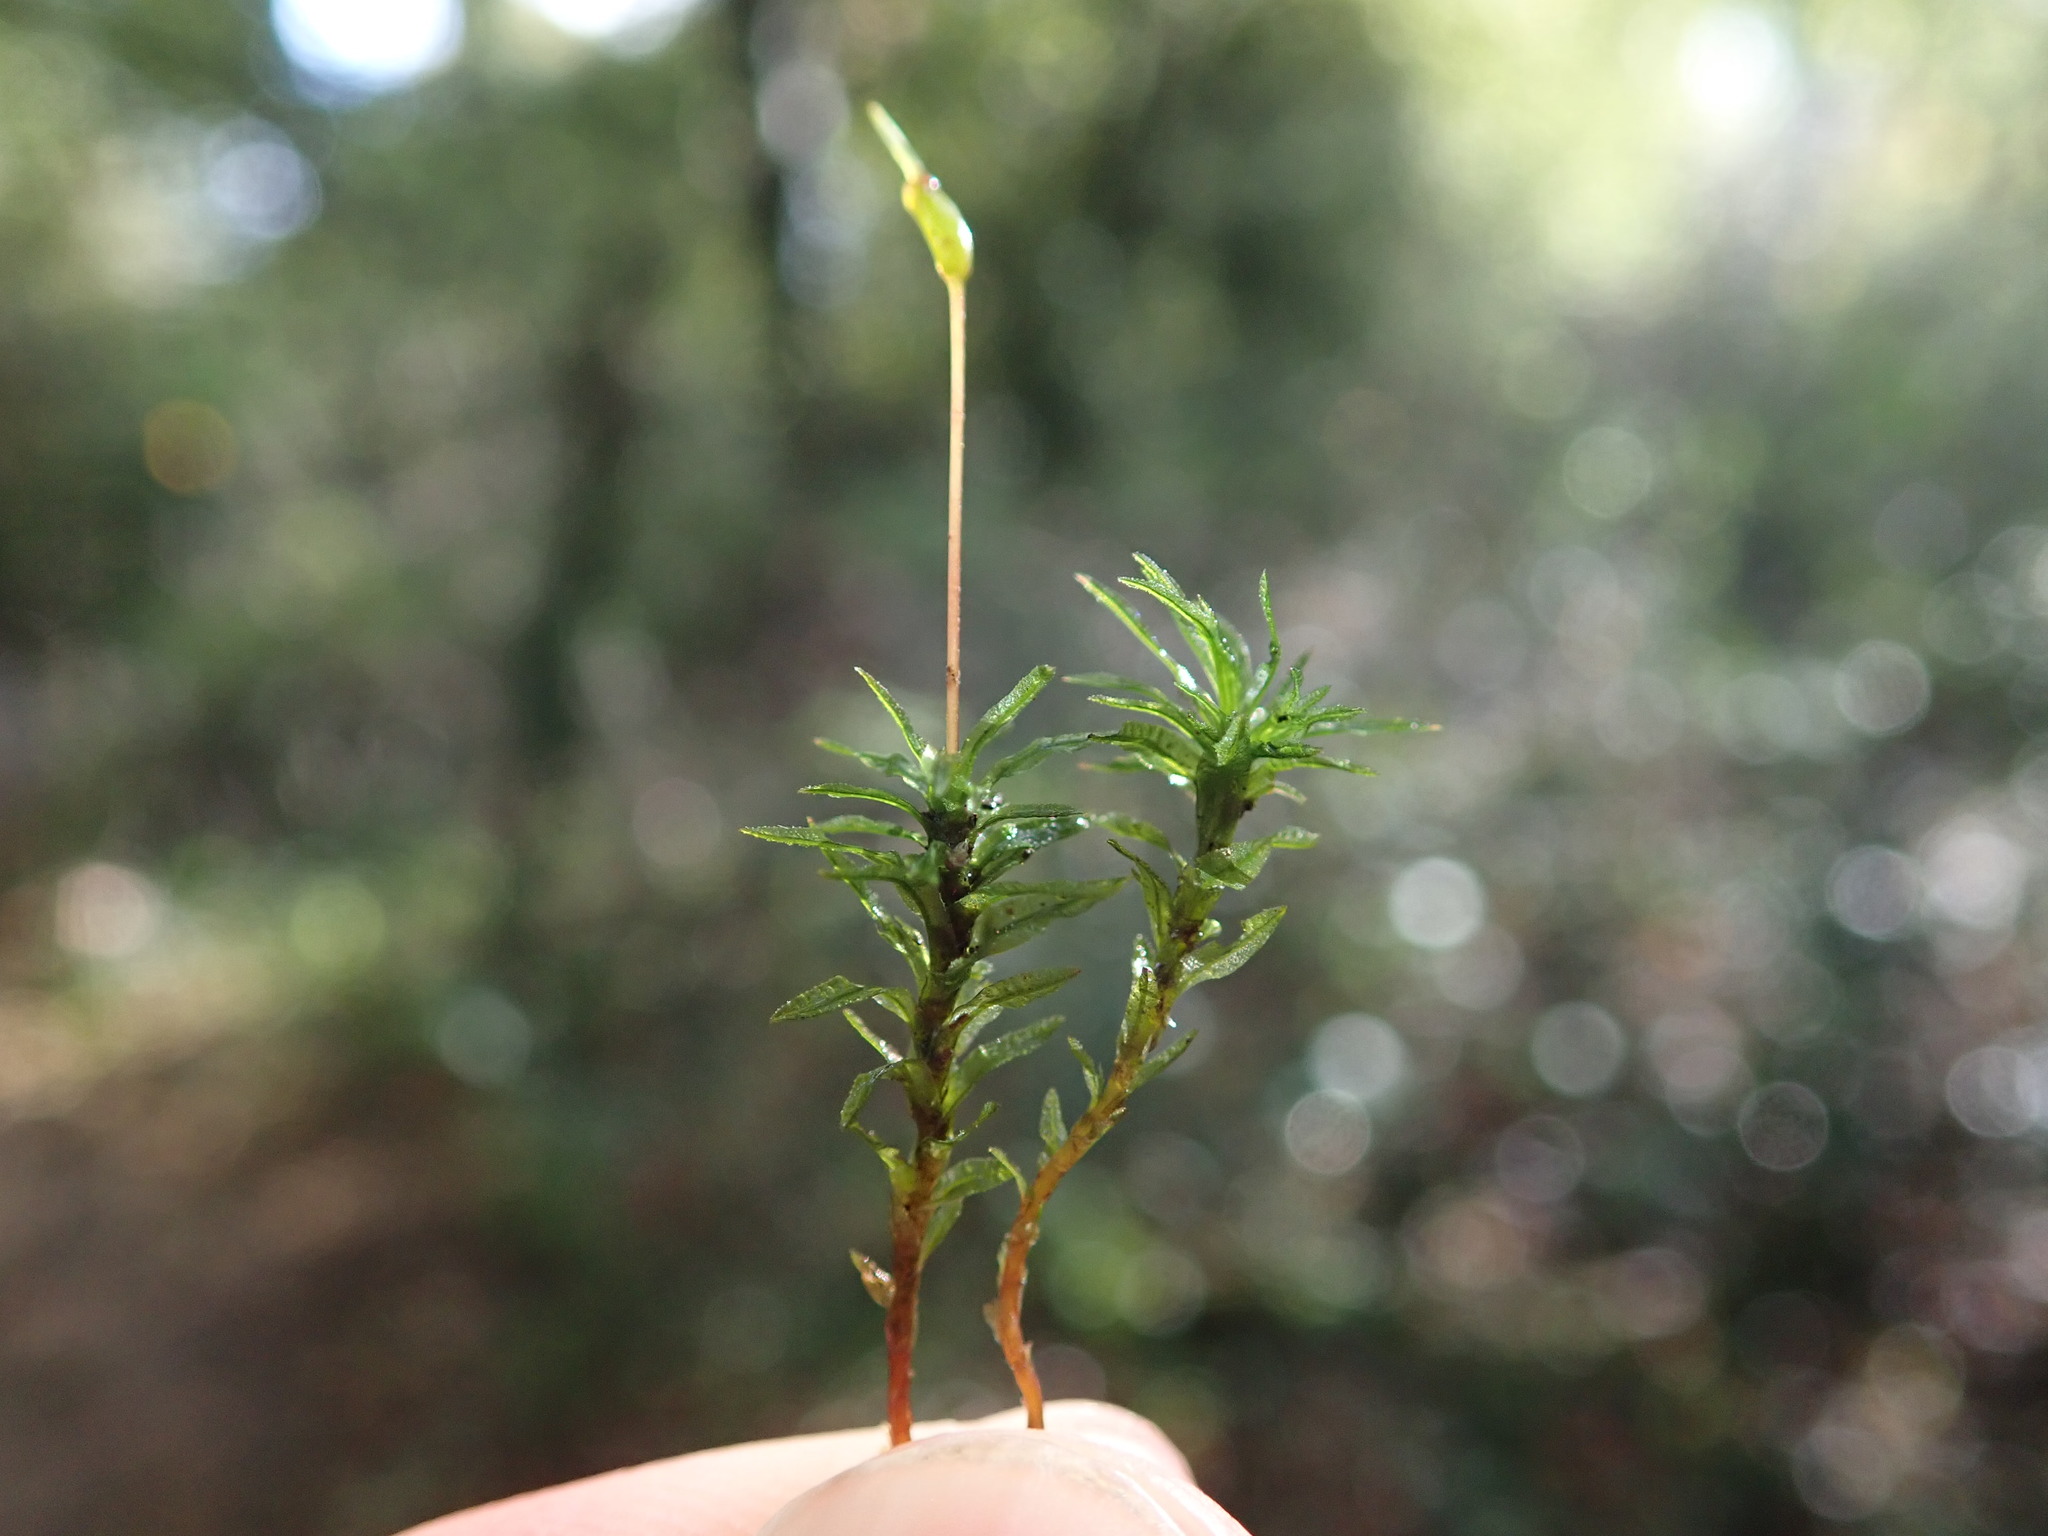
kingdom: Plantae
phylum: Bryophyta
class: Polytrichopsida
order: Polytrichales
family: Polytrichaceae
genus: Atrichum
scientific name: Atrichum undulatum
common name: Common smoothcap
